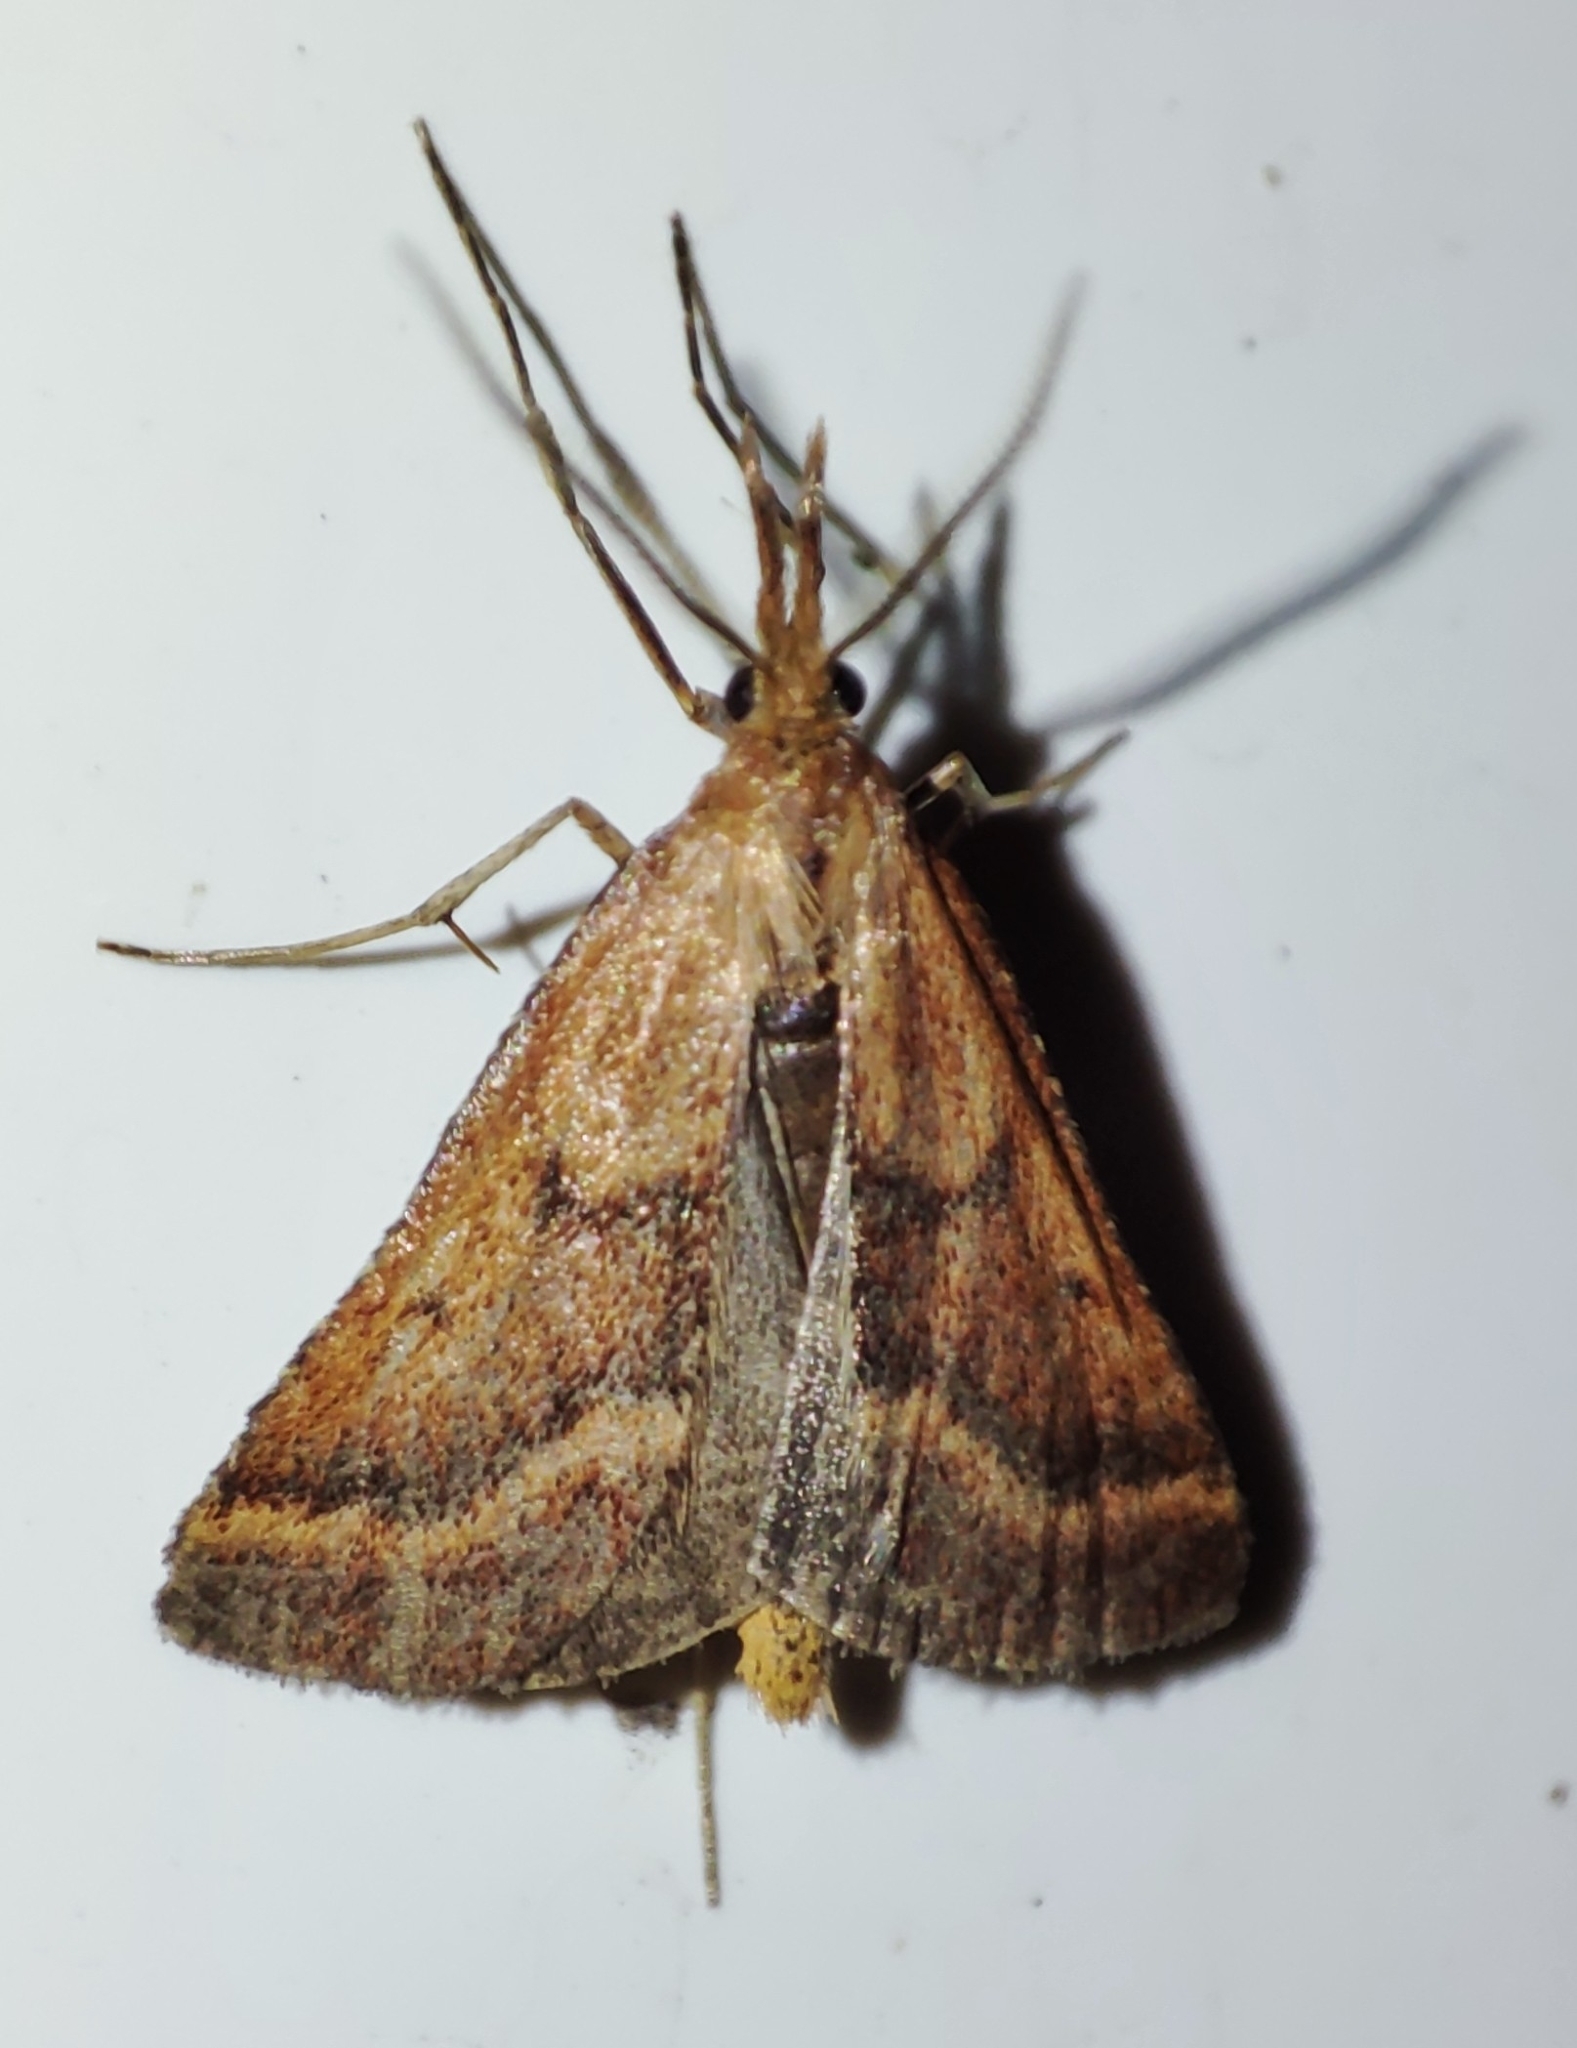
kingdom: Animalia
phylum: Arthropoda
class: Insecta
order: Lepidoptera
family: Pyralidae
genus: Synaphe
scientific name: Synaphe punctalis
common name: Long-legged tabby
